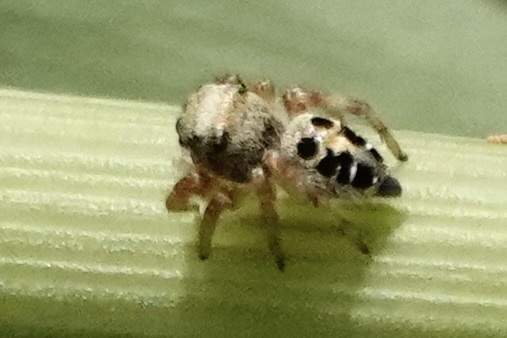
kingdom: Animalia
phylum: Arthropoda
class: Arachnida
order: Araneae
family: Salticidae
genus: Phidippus
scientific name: Phidippus princeps
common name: Grayish jumping spider
